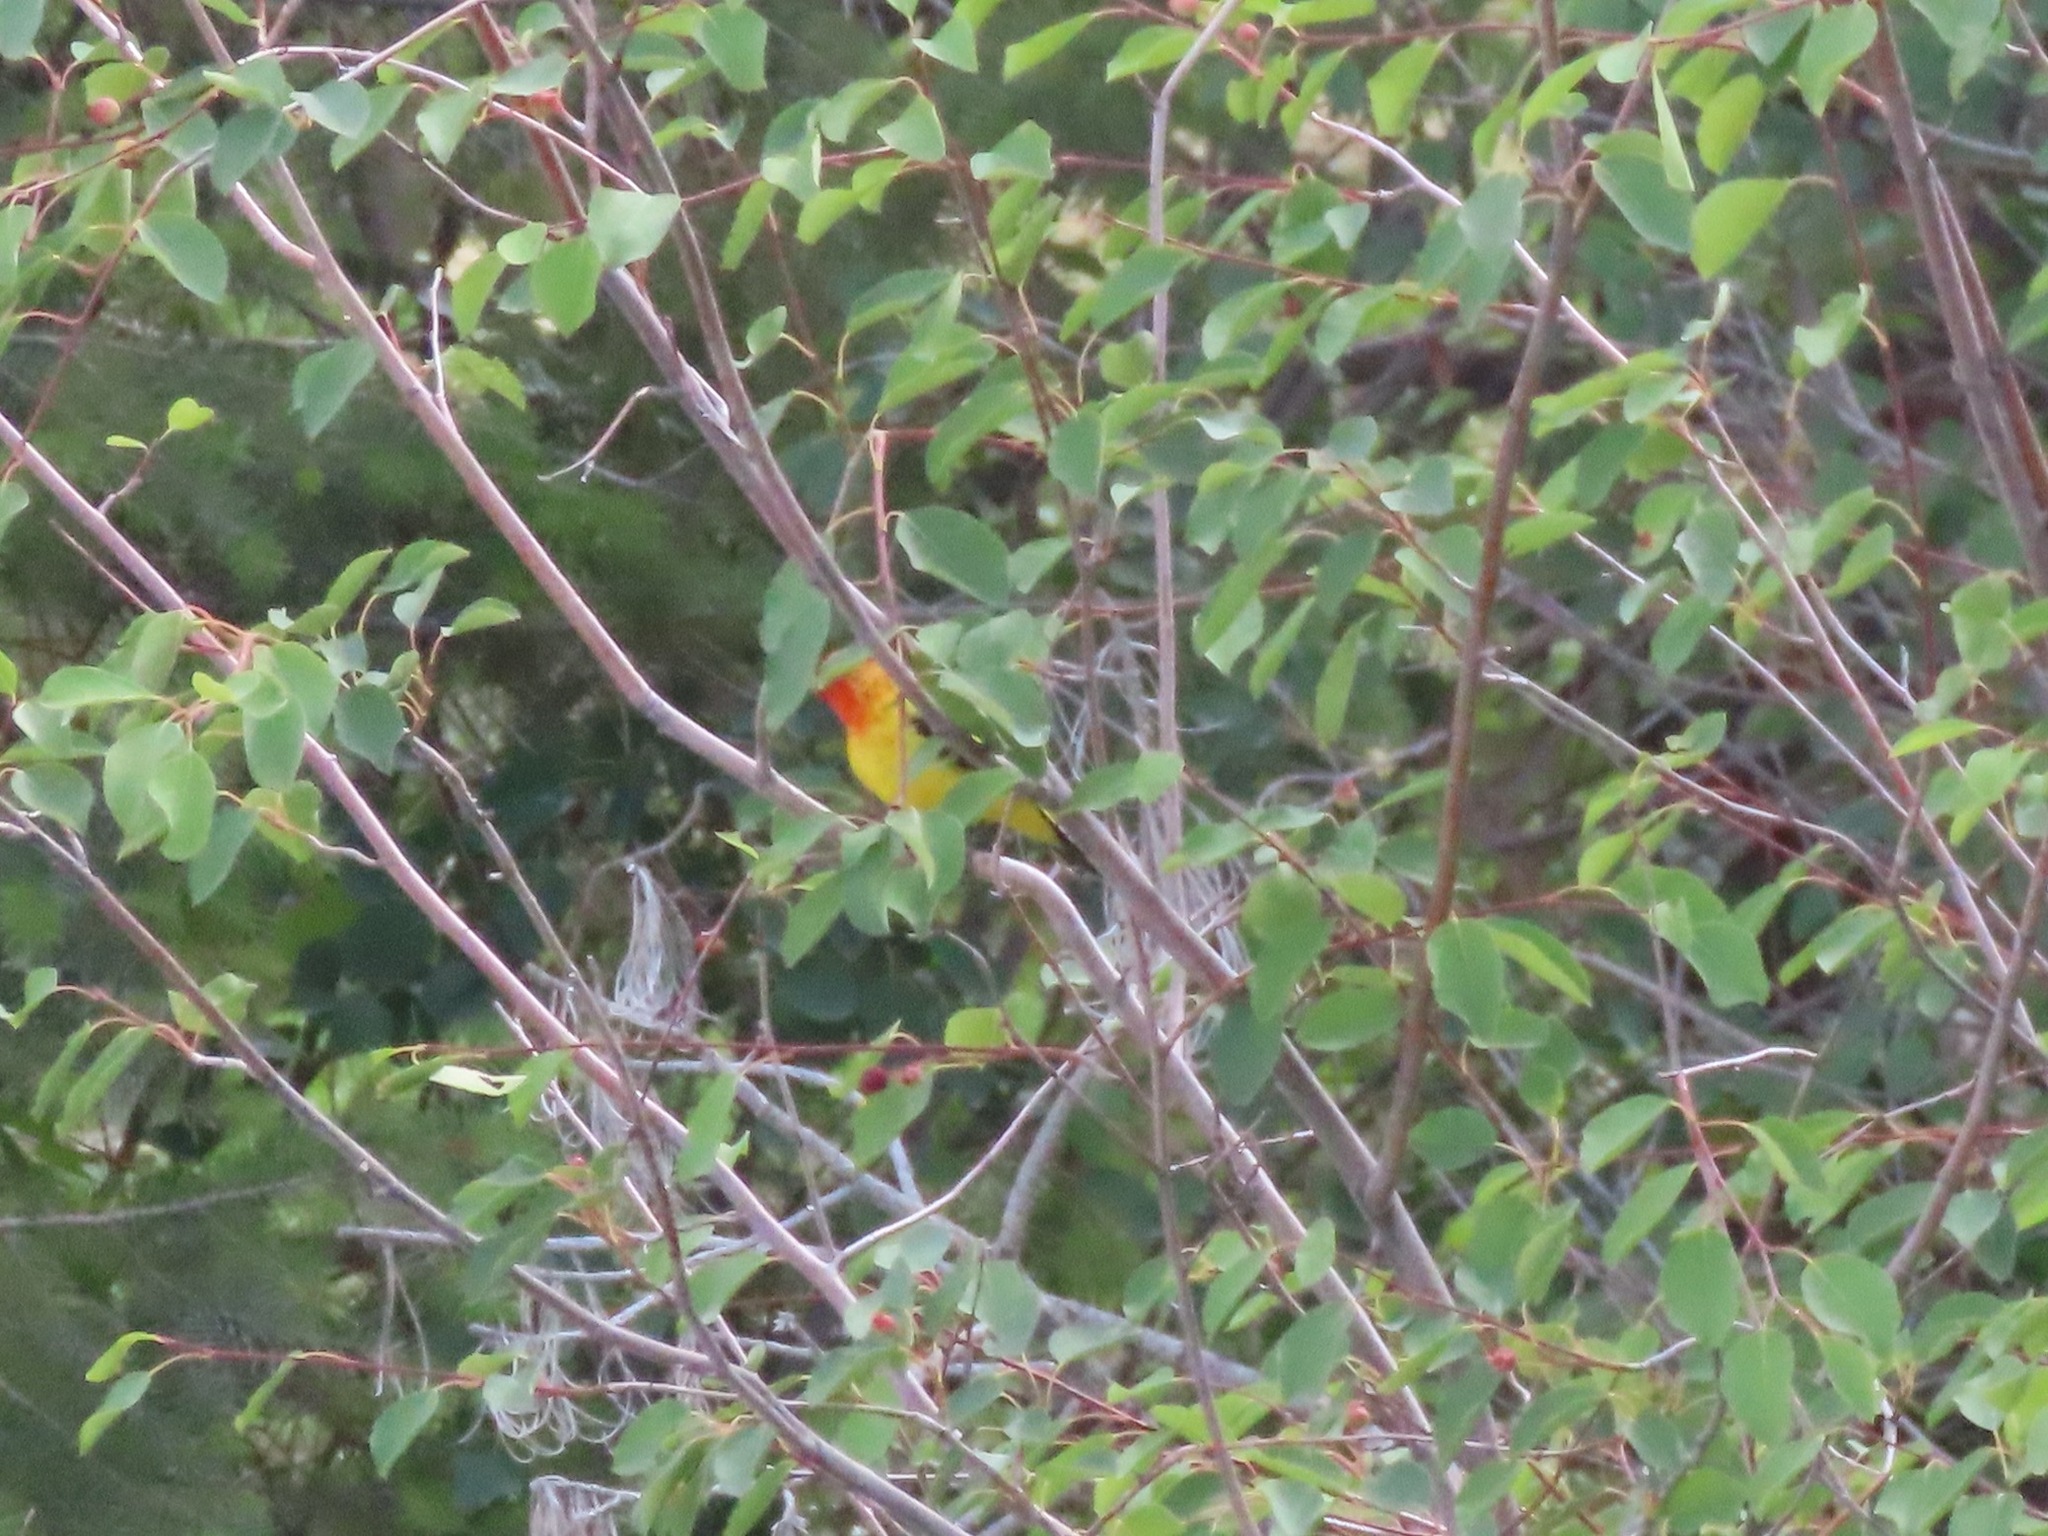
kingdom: Animalia
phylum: Chordata
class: Aves
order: Passeriformes
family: Cardinalidae
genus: Piranga
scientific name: Piranga ludoviciana
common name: Western tanager
